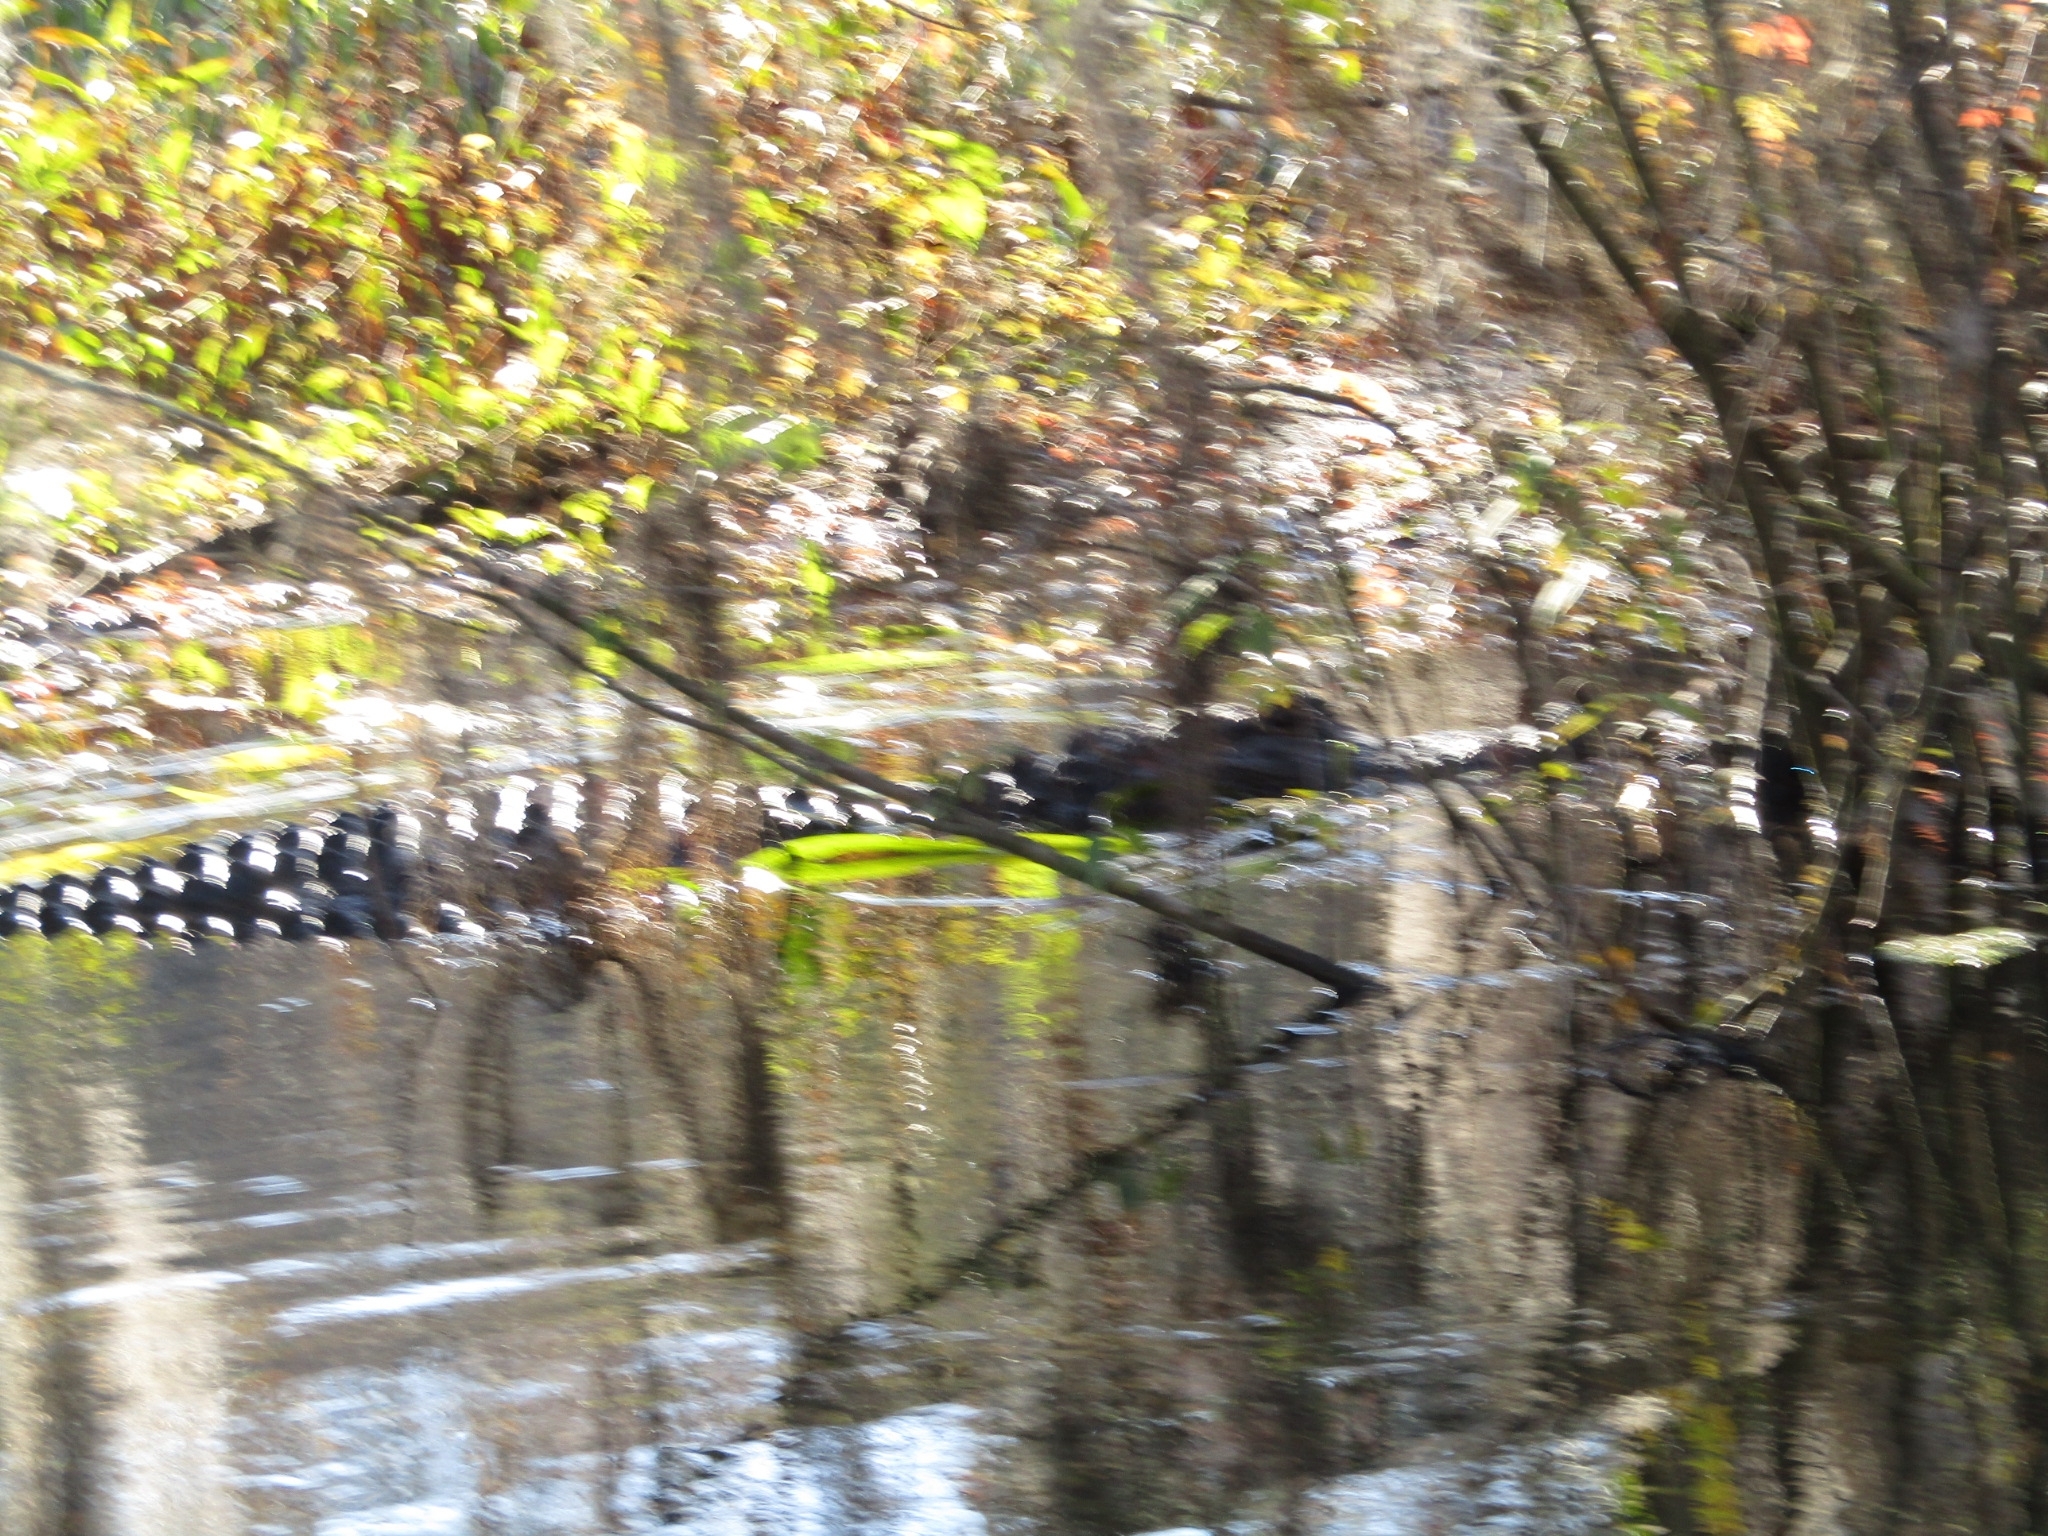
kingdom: Animalia
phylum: Chordata
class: Crocodylia
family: Alligatoridae
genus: Alligator
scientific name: Alligator mississippiensis
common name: American alligator
